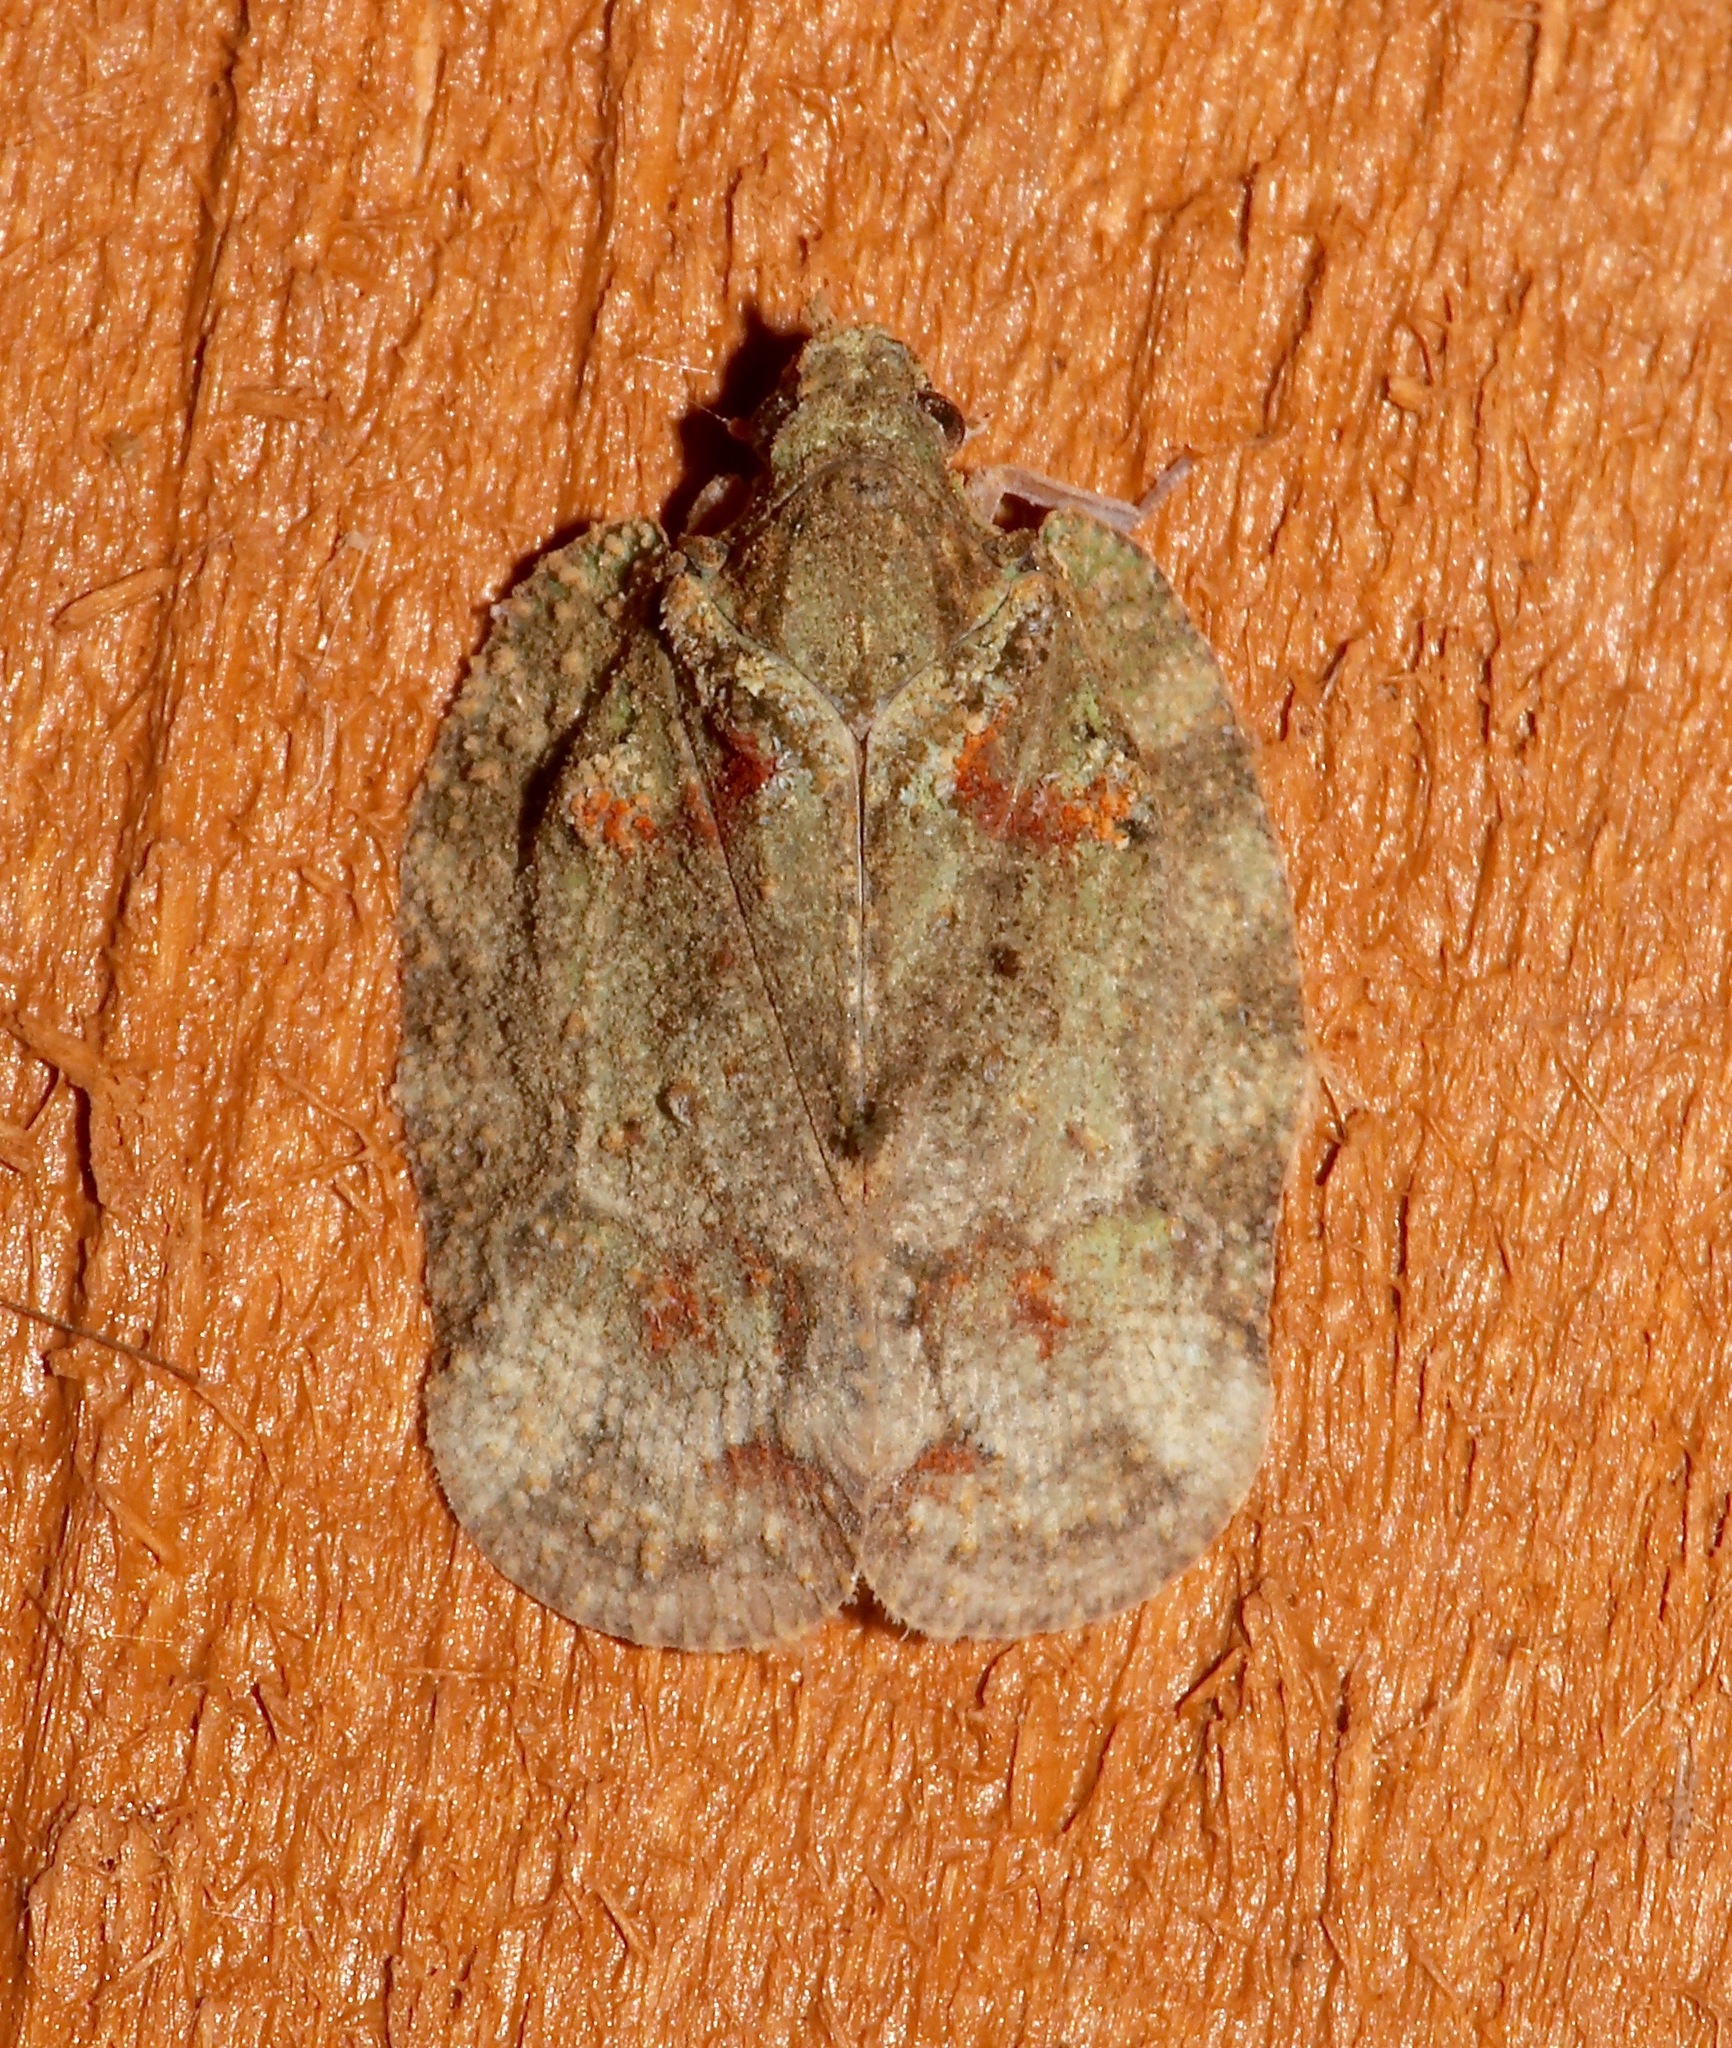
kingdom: Animalia
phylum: Arthropoda
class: Insecta
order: Hemiptera
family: Flatidae
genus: Flataloides
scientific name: Flataloides scabrosa
